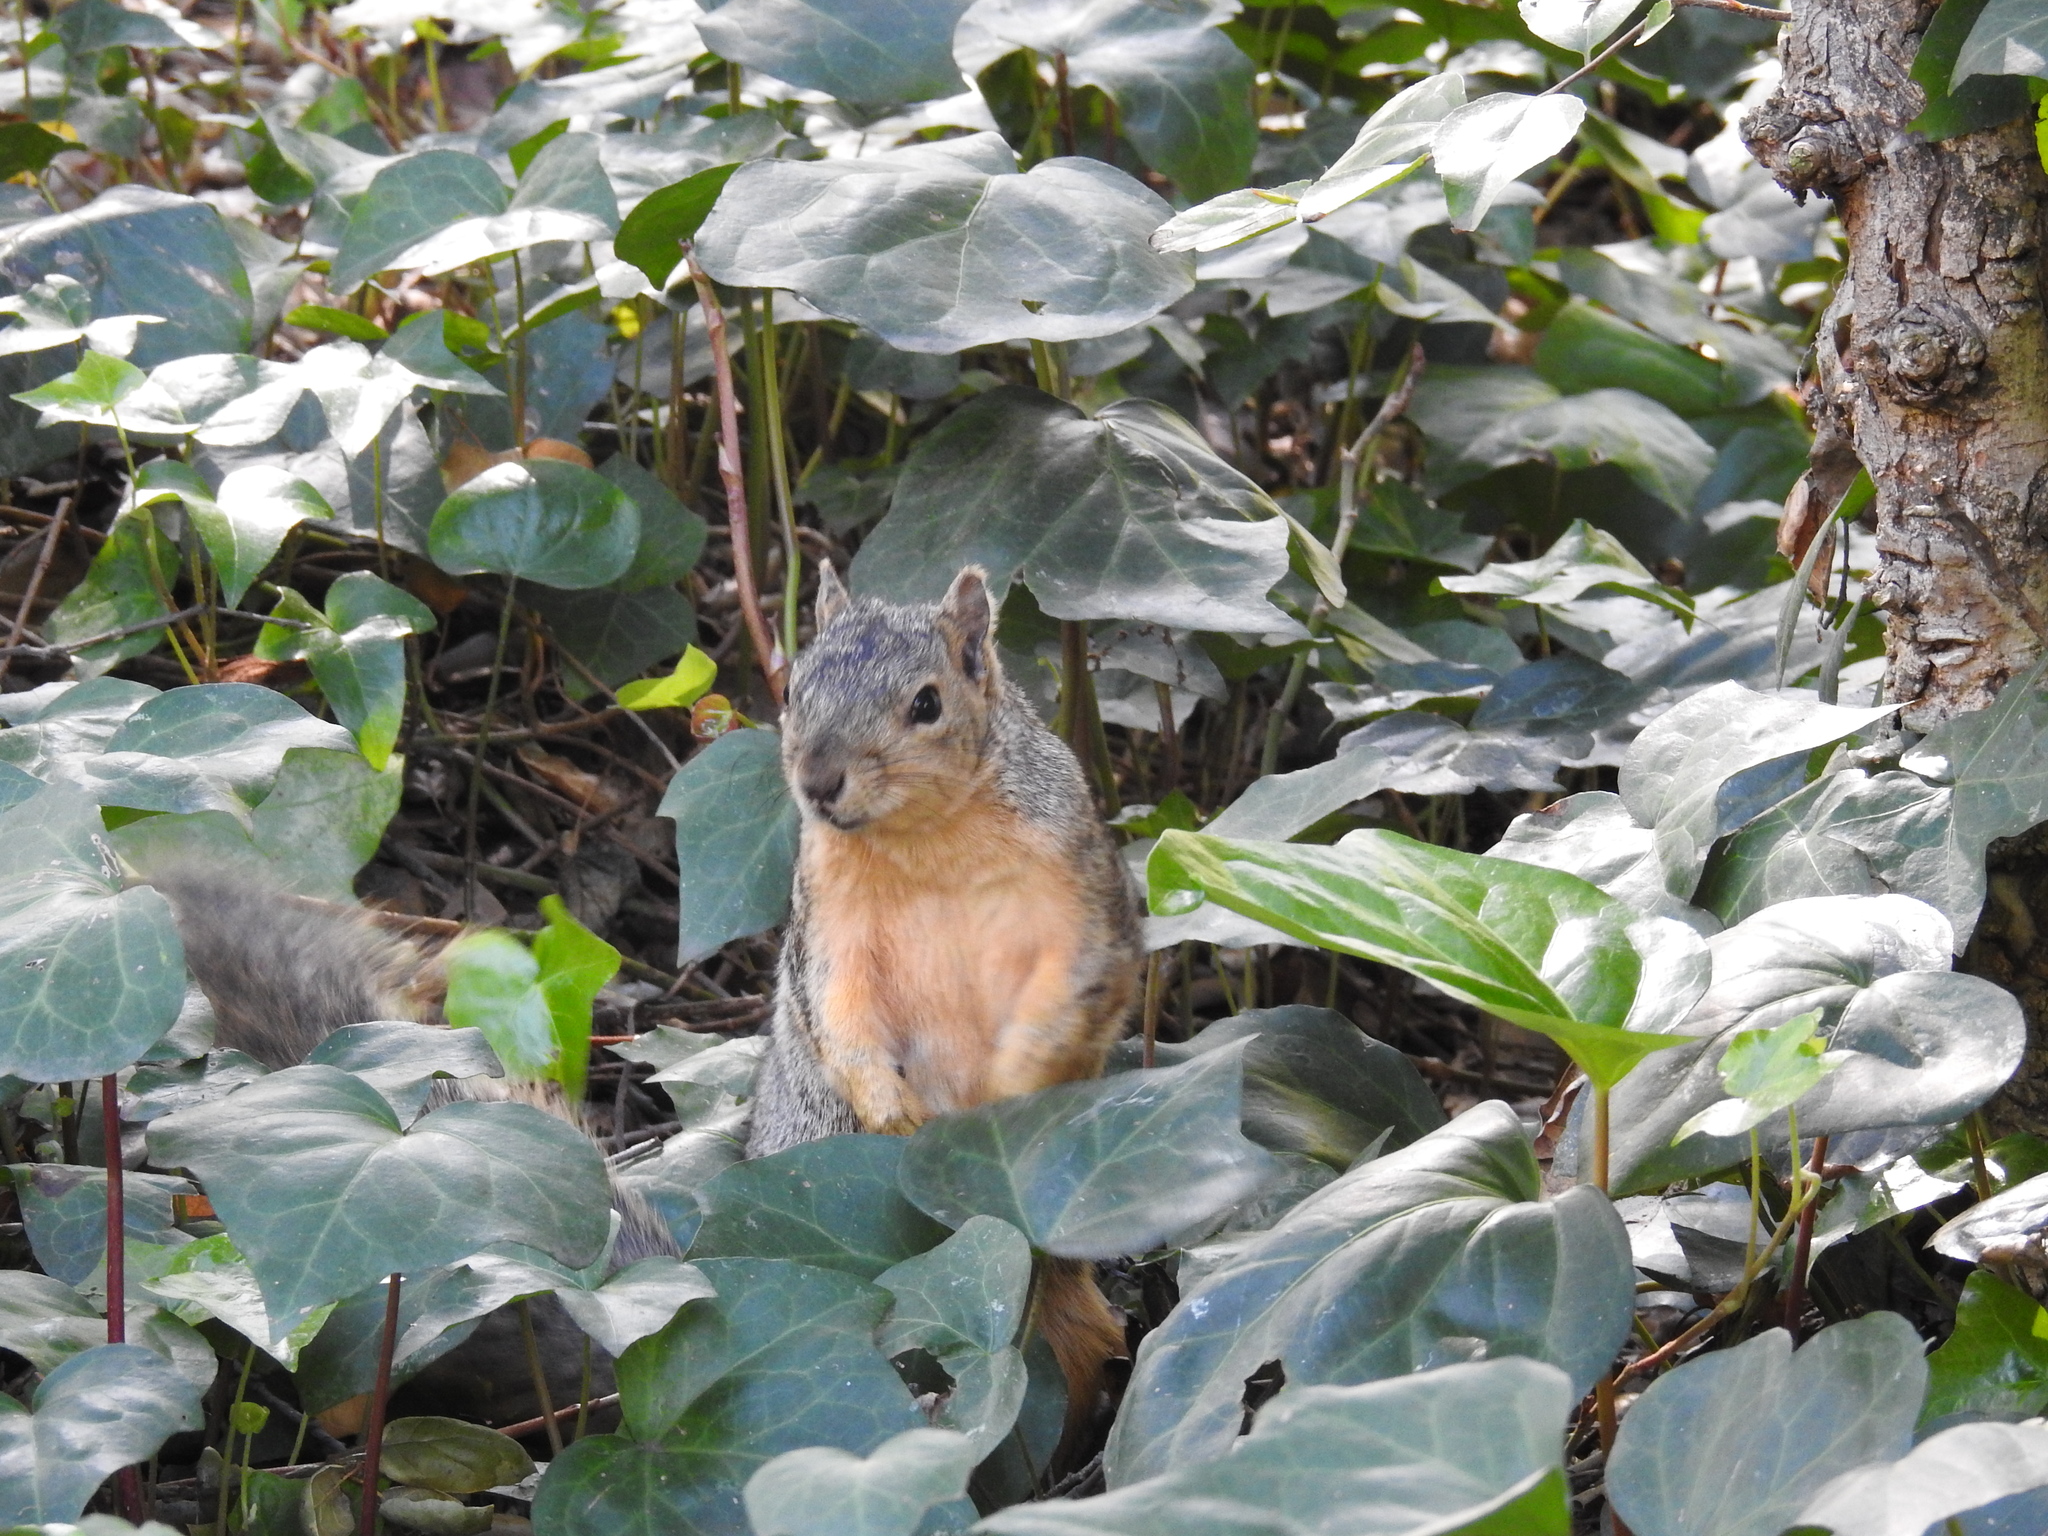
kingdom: Animalia
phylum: Chordata
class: Mammalia
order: Rodentia
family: Sciuridae
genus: Sciurus
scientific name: Sciurus niger
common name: Fox squirrel
